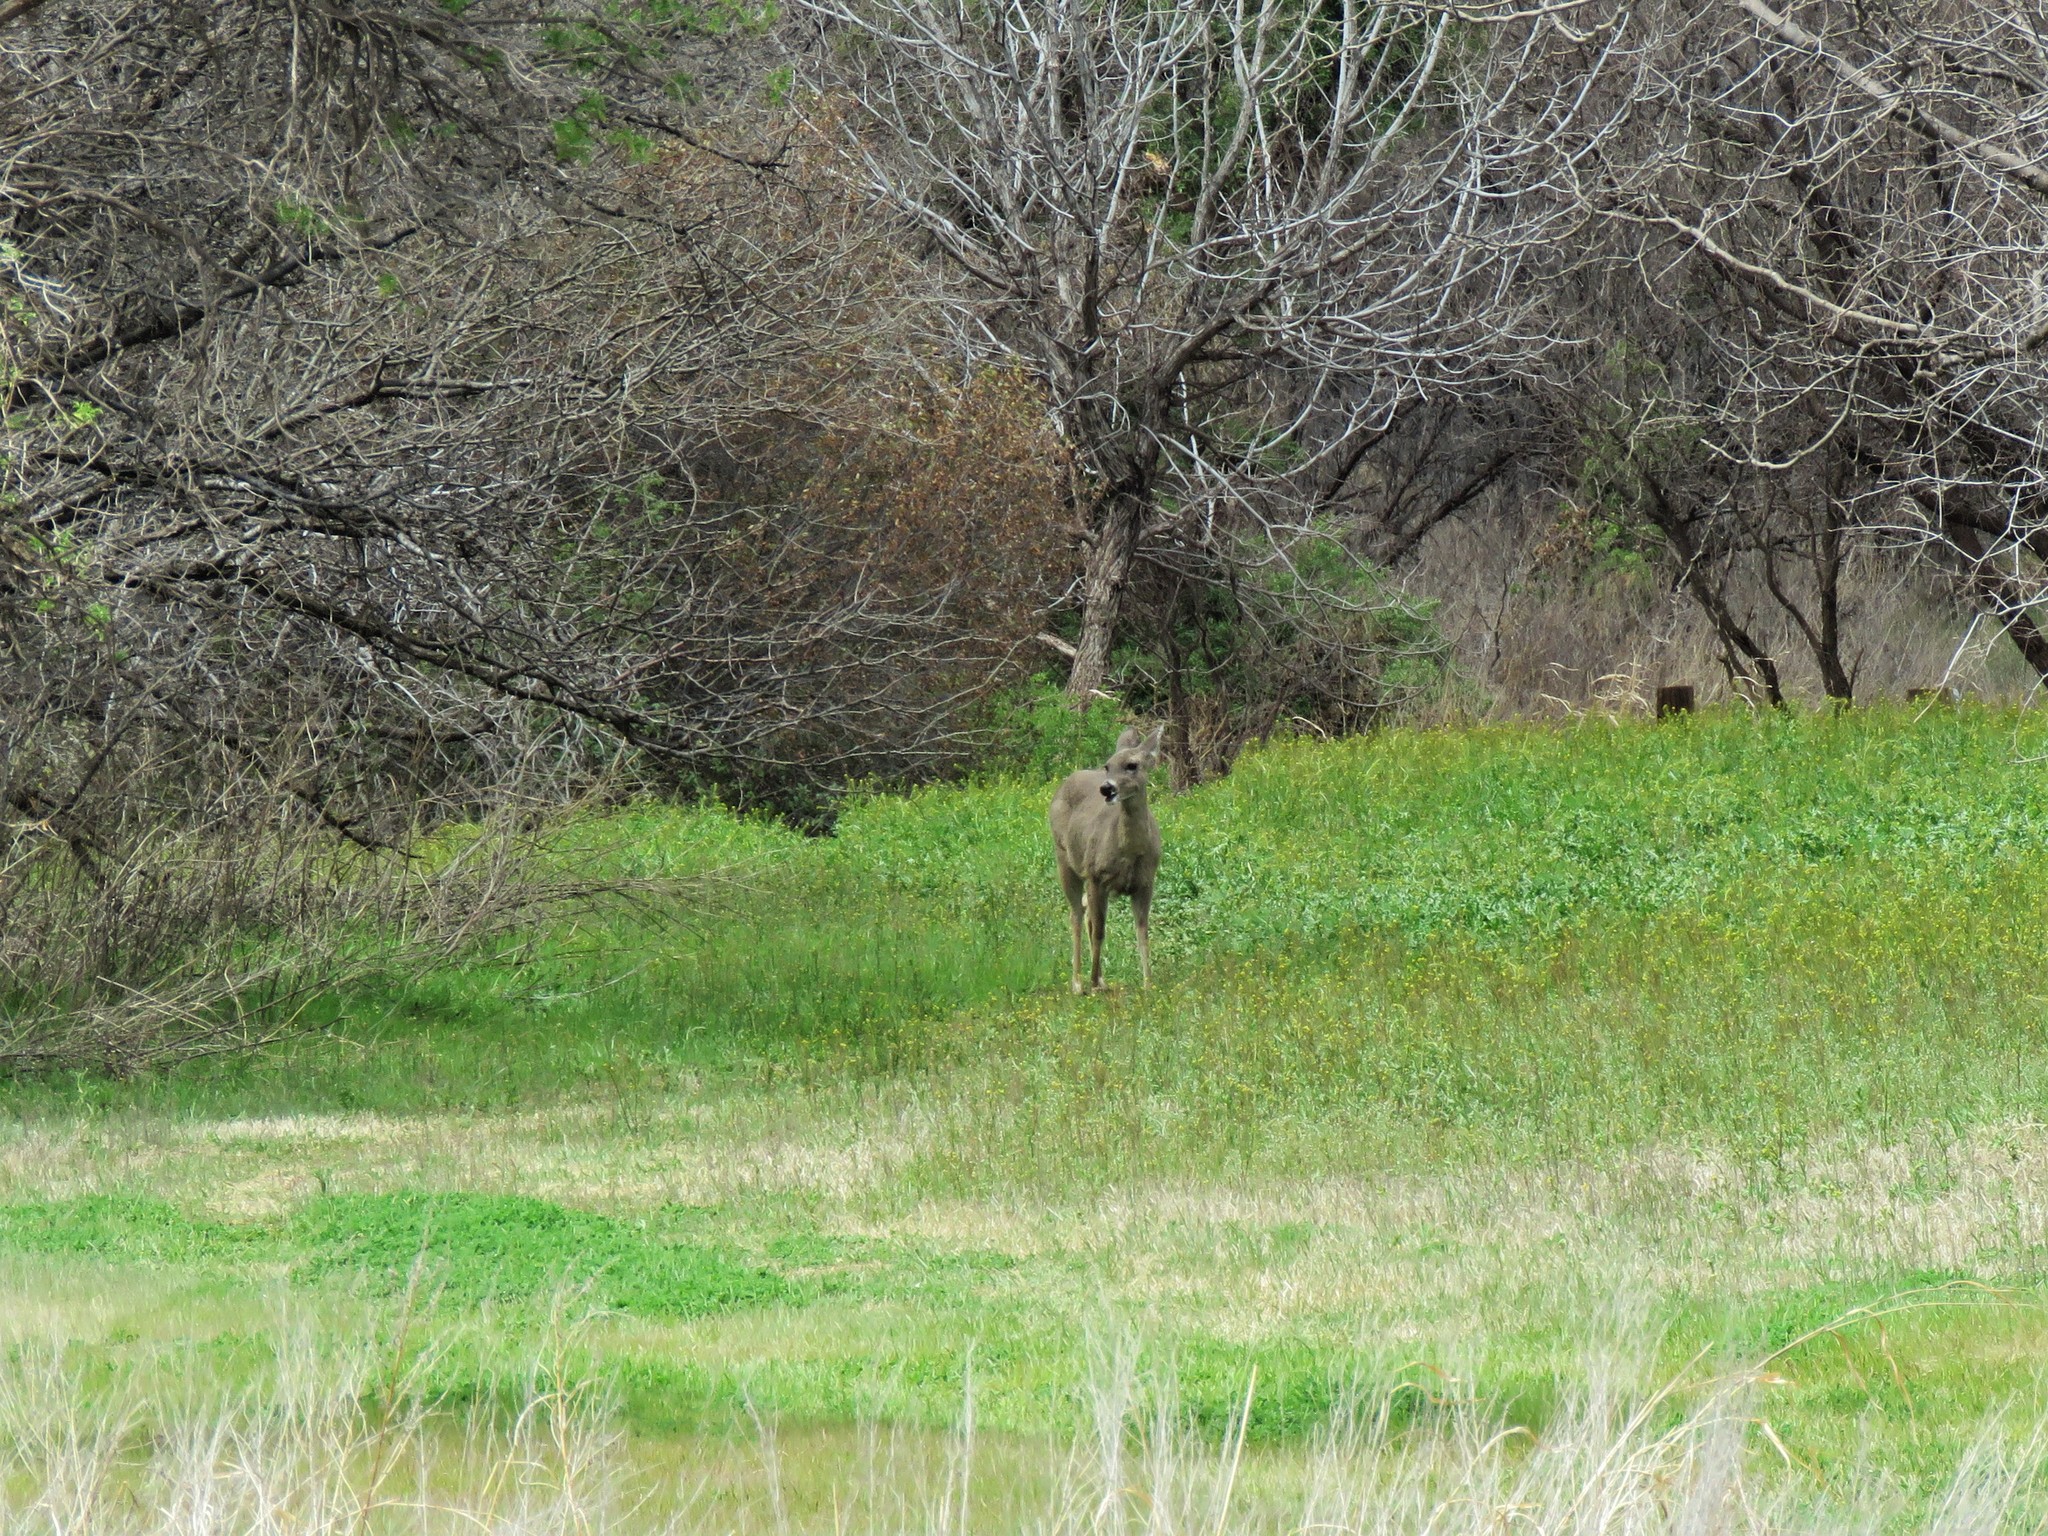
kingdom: Animalia
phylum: Chordata
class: Mammalia
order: Artiodactyla
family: Cervidae
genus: Odocoileus
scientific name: Odocoileus virginianus
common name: White-tailed deer
